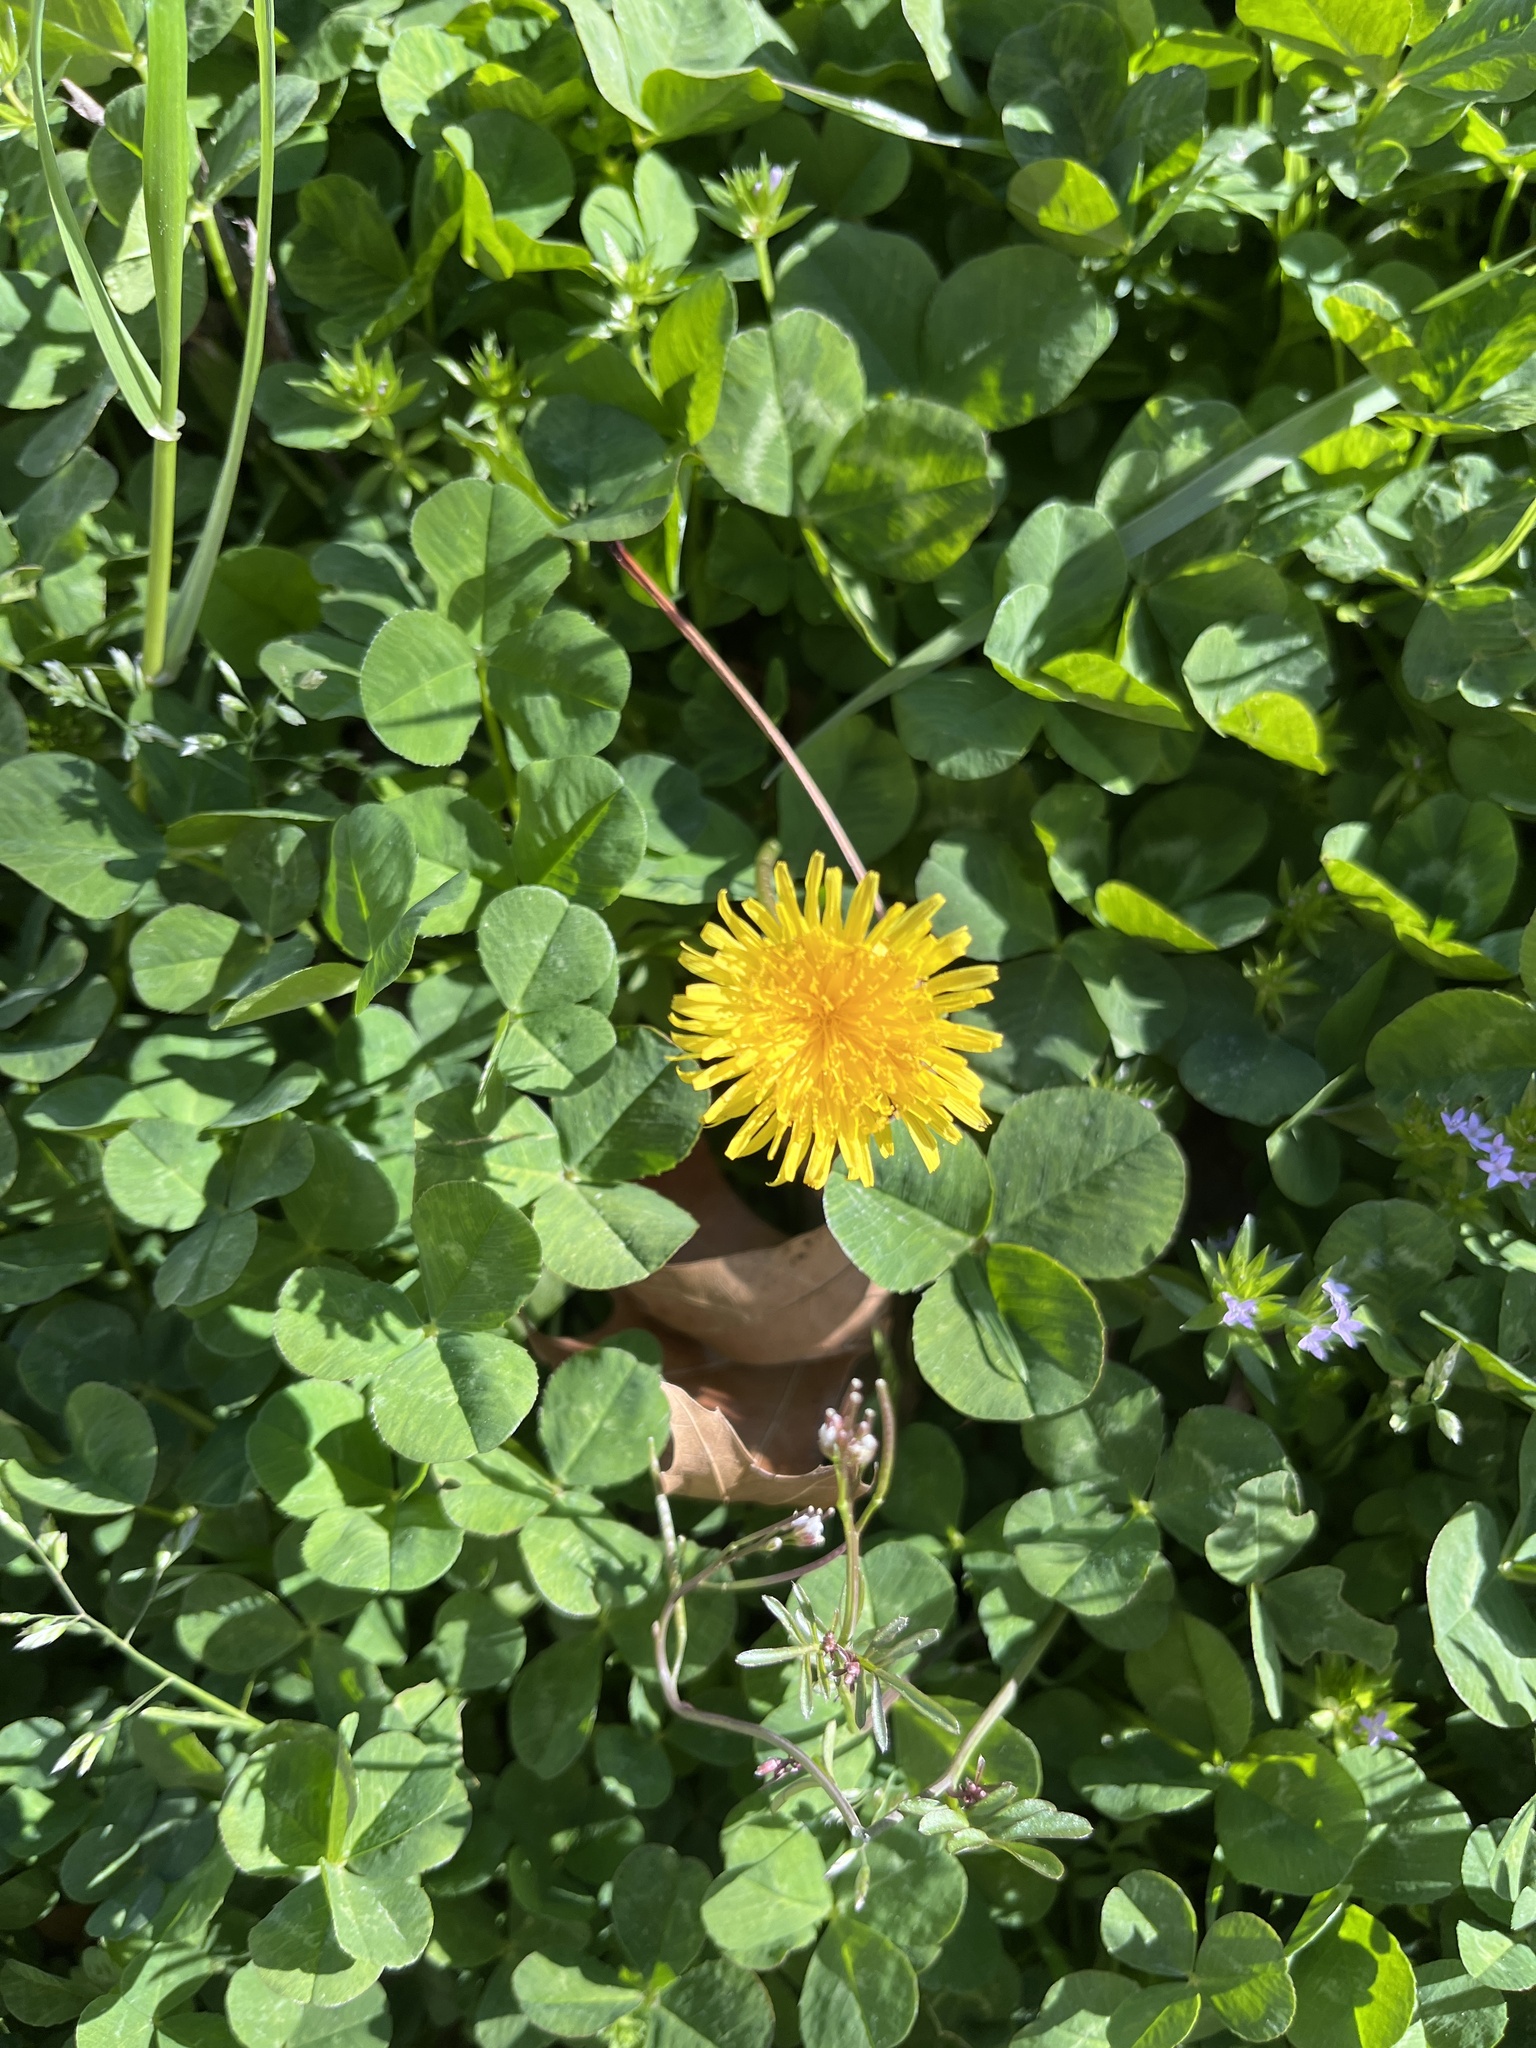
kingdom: Plantae
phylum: Tracheophyta
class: Magnoliopsida
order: Asterales
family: Asteraceae
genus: Taraxacum
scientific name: Taraxacum
